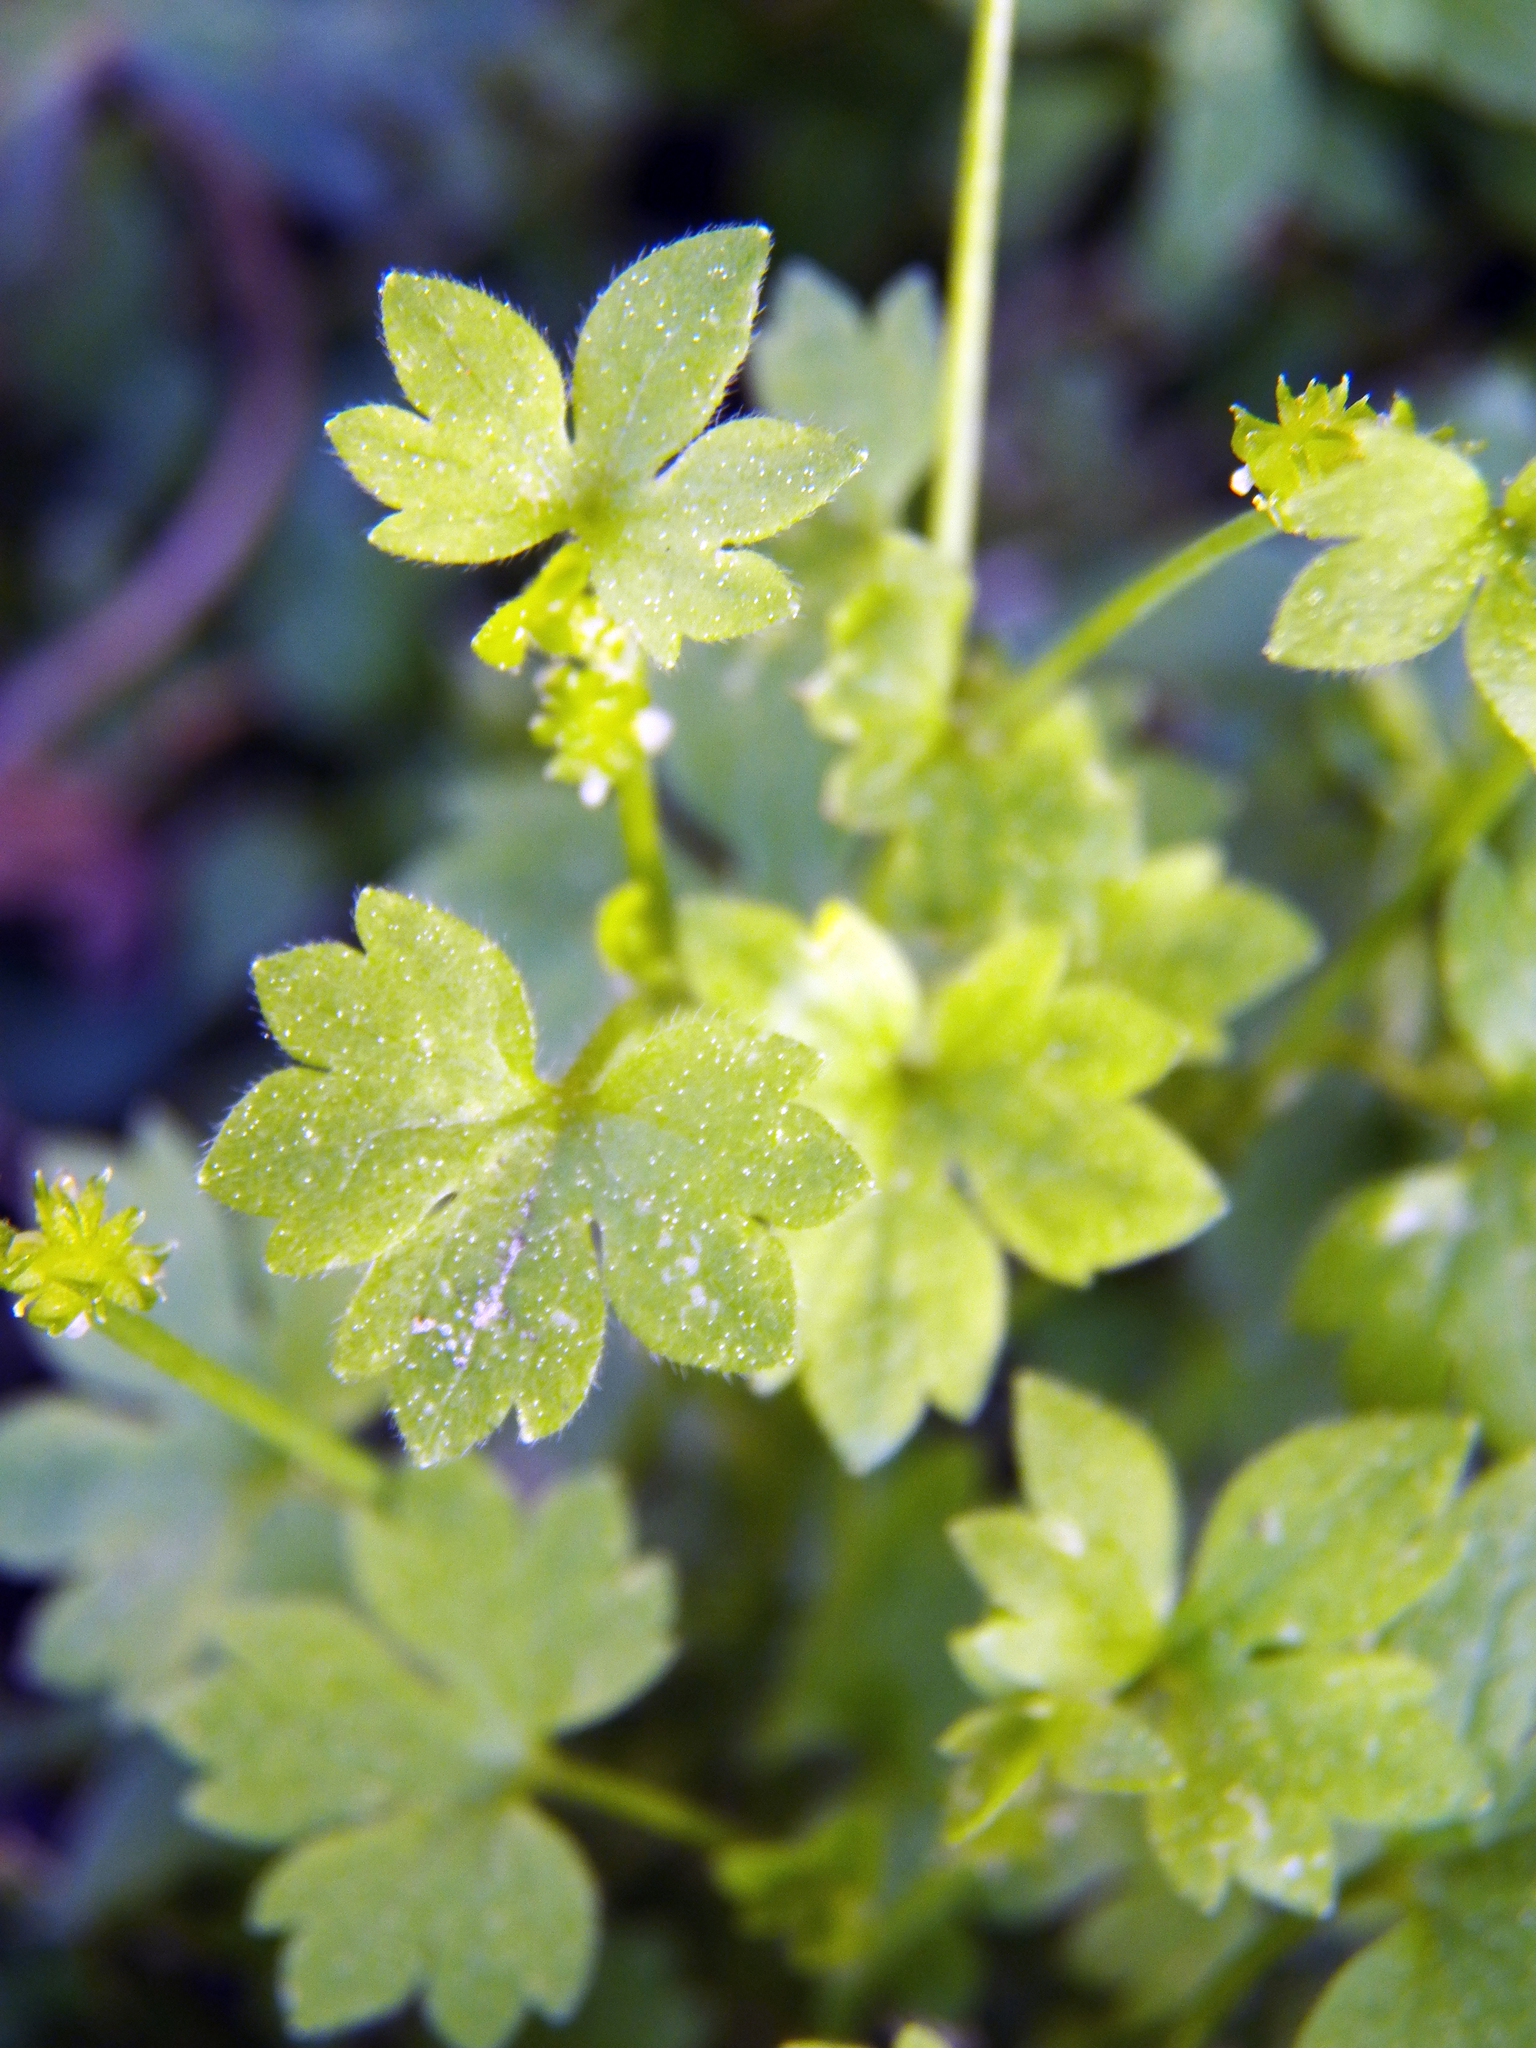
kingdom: Plantae
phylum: Tracheophyta
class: Magnoliopsida
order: Ranunculales
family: Ranunculaceae
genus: Ranunculus
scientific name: Ranunculus platensis
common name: Prairie buttercup
